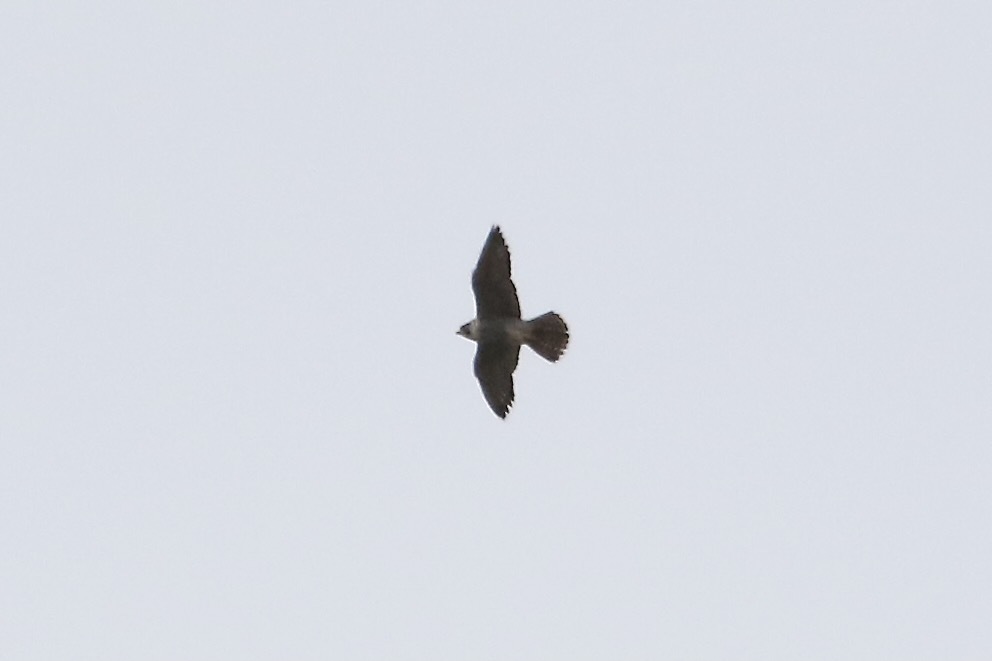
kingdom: Animalia
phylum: Chordata
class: Aves
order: Falconiformes
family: Falconidae
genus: Falco
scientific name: Falco peregrinus
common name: Peregrine falcon
